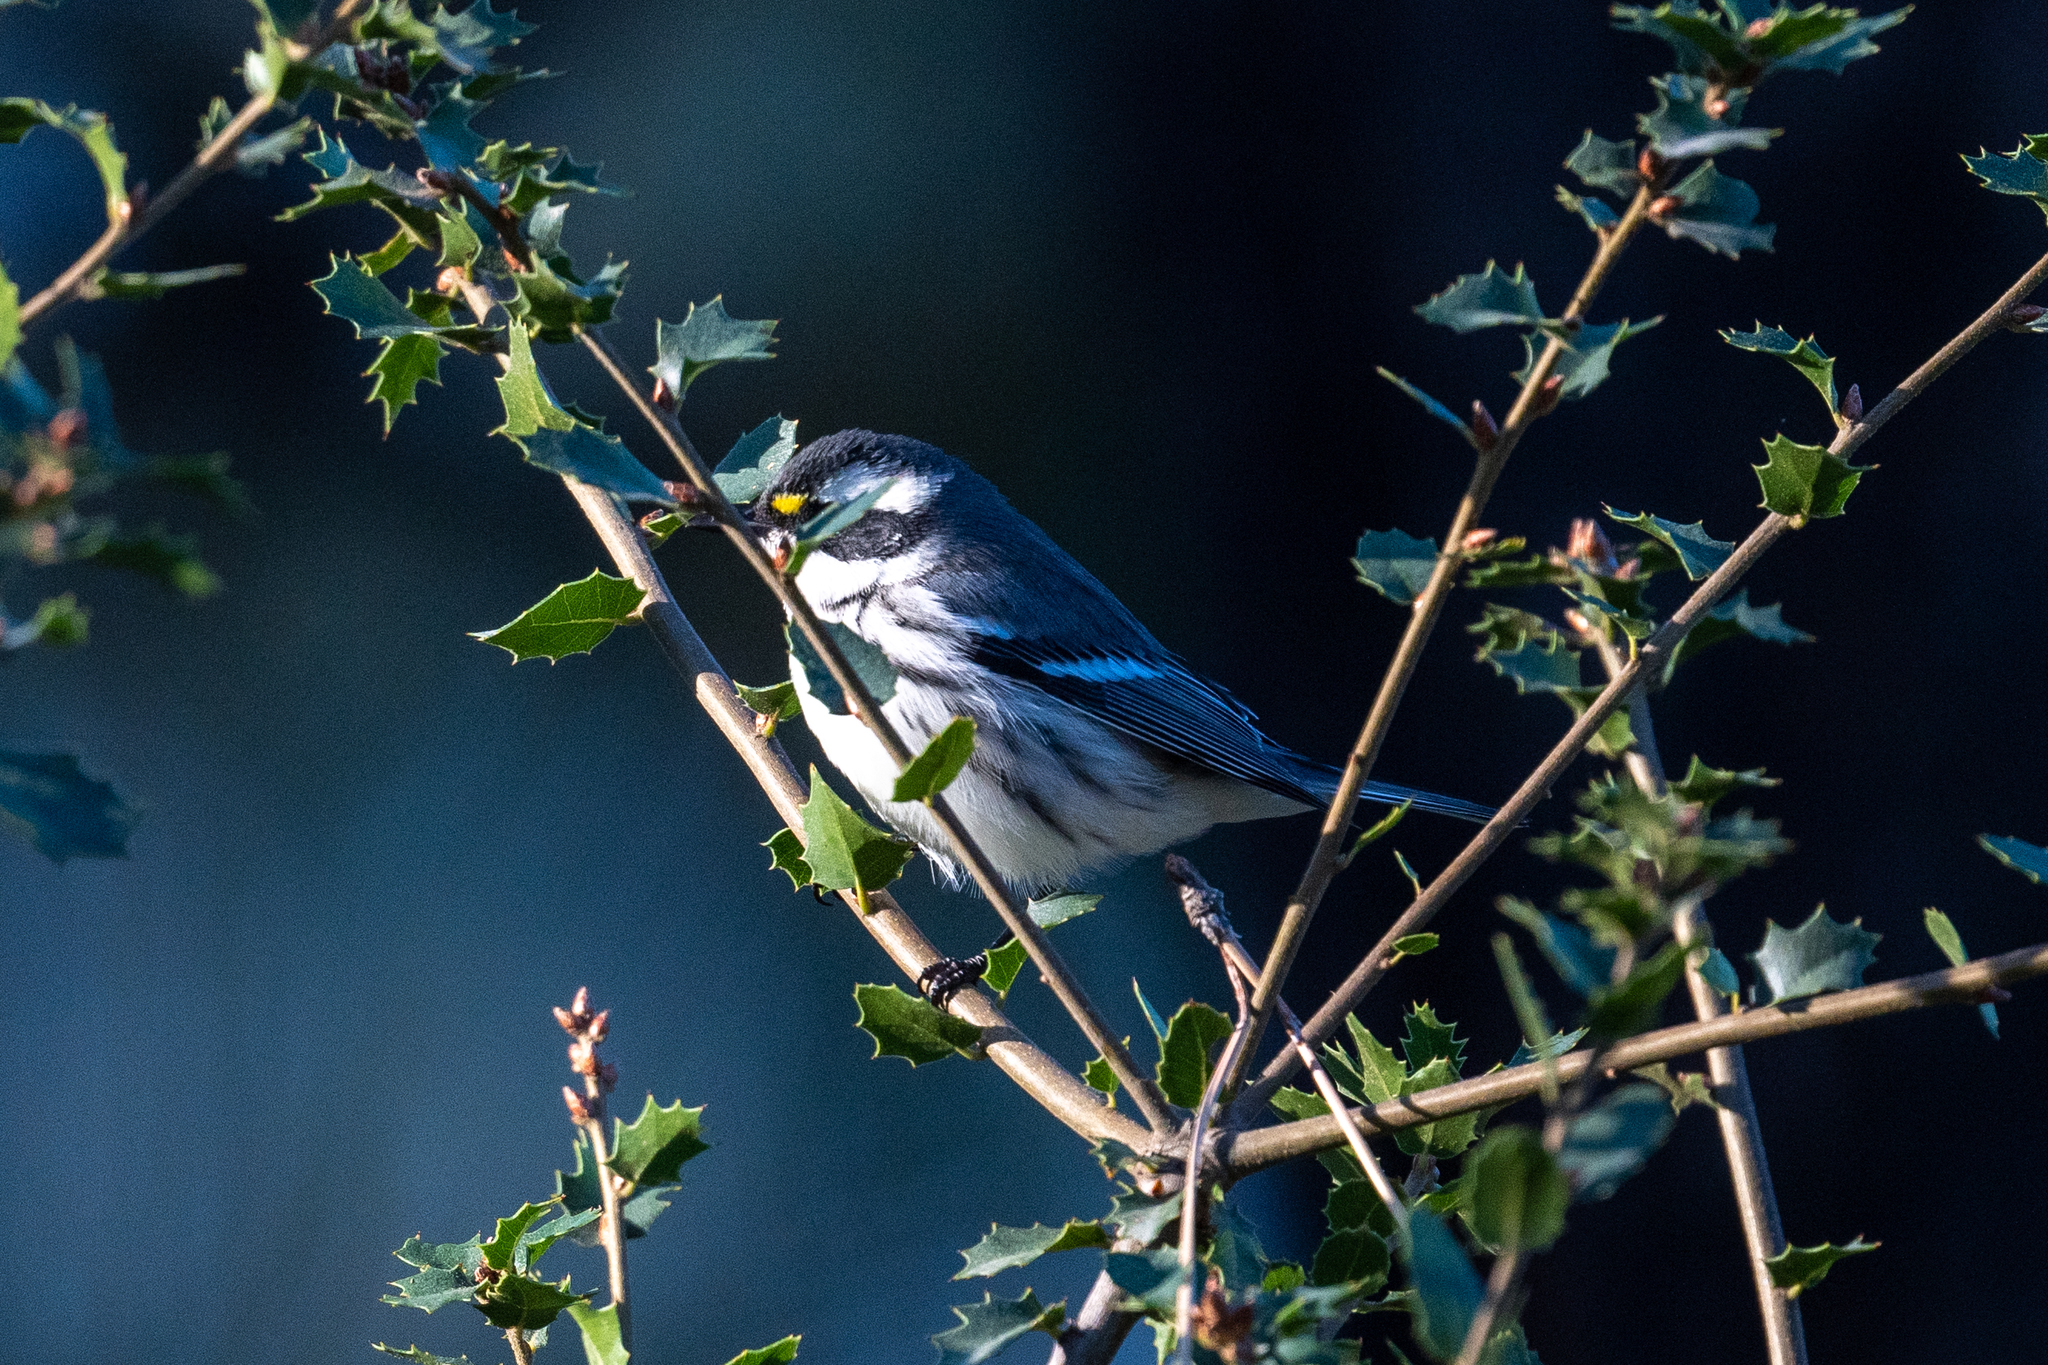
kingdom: Animalia
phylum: Chordata
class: Aves
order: Passeriformes
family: Parulidae
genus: Setophaga
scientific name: Setophaga nigrescens
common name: Black-throated gray warbler
